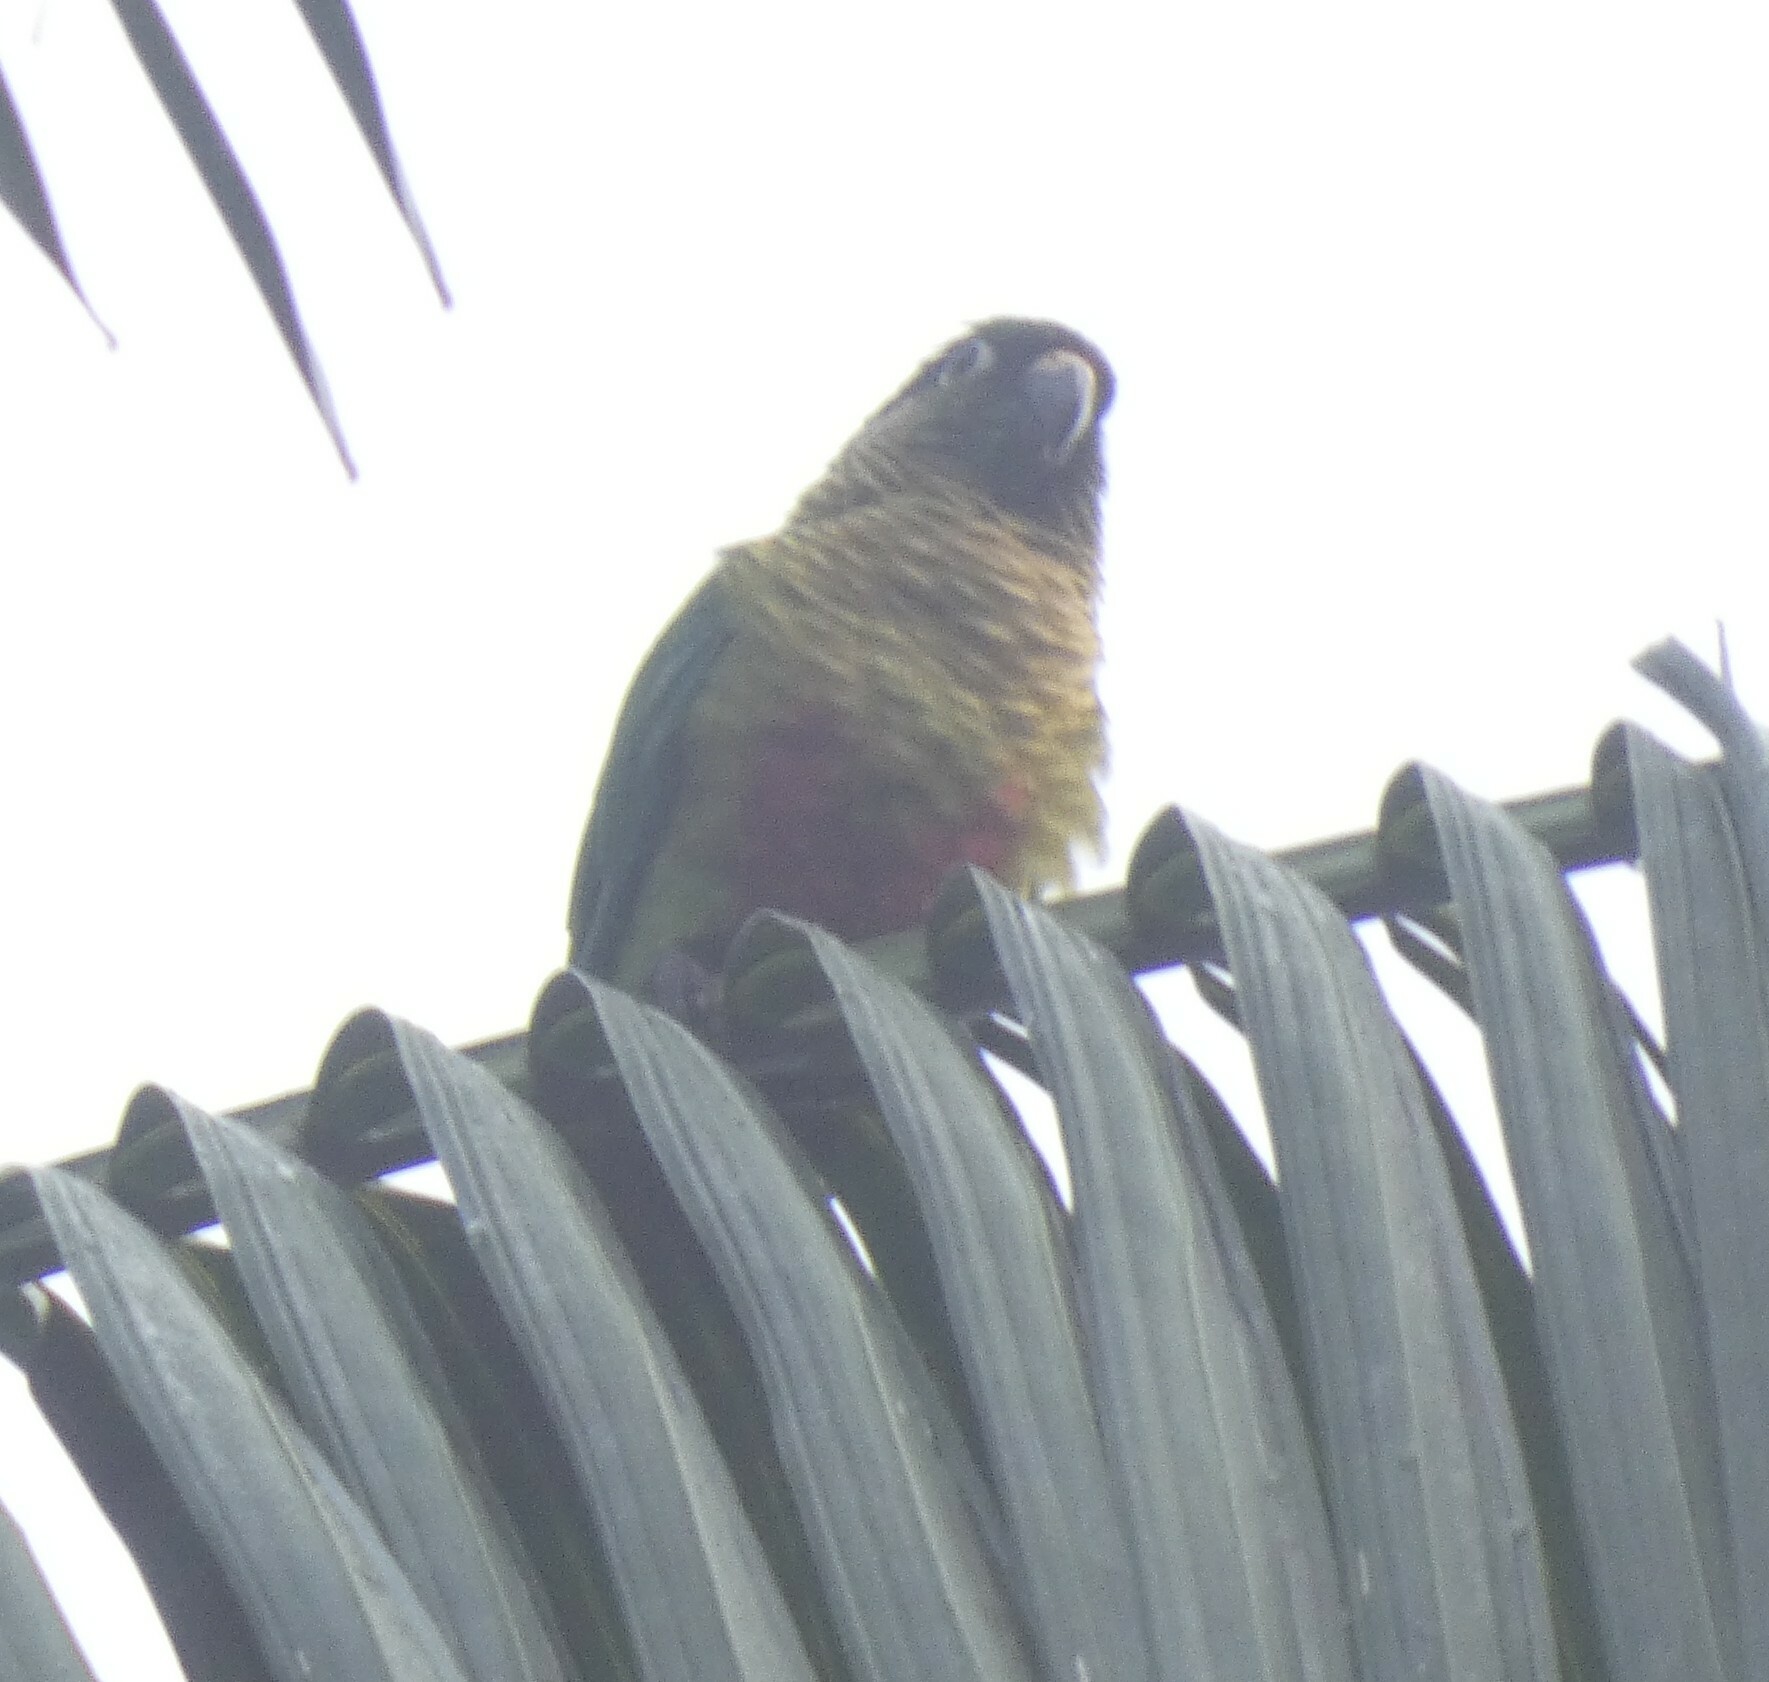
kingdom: Animalia
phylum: Chordata
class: Aves
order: Psittaciformes
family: Psittacidae
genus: Pyrrhura
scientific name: Pyrrhura frontalis
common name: Maroon-bellied parakeet
